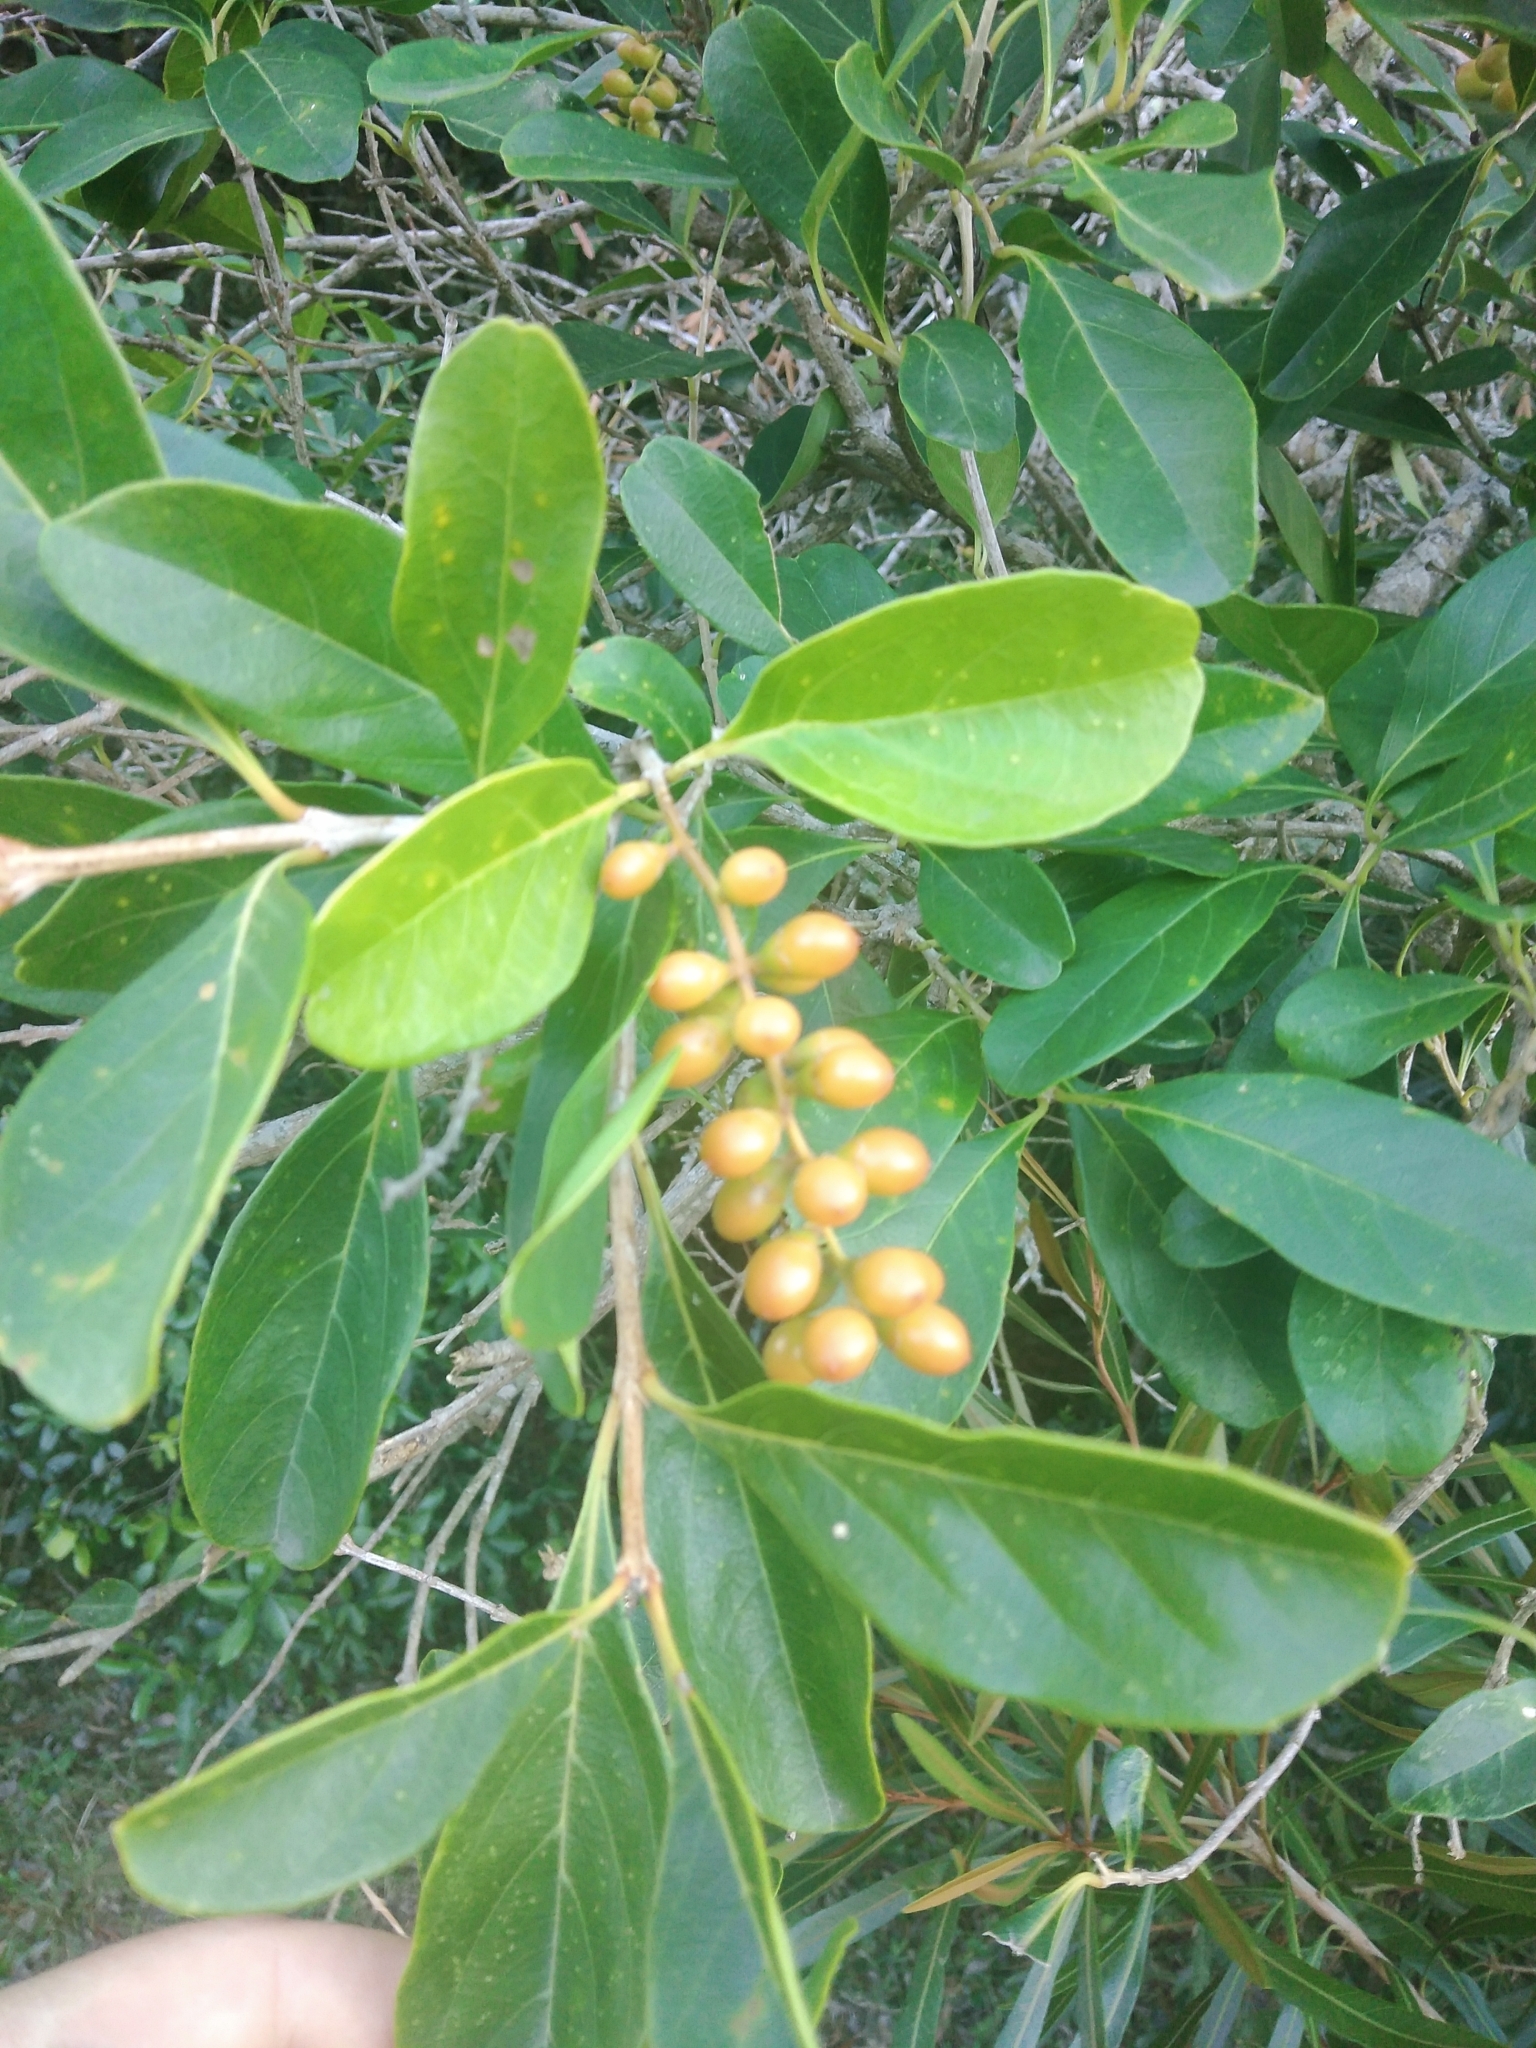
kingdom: Plantae
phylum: Tracheophyta
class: Magnoliopsida
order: Lamiales
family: Verbenaceae
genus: Citharexylum
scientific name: Citharexylum montevidense
